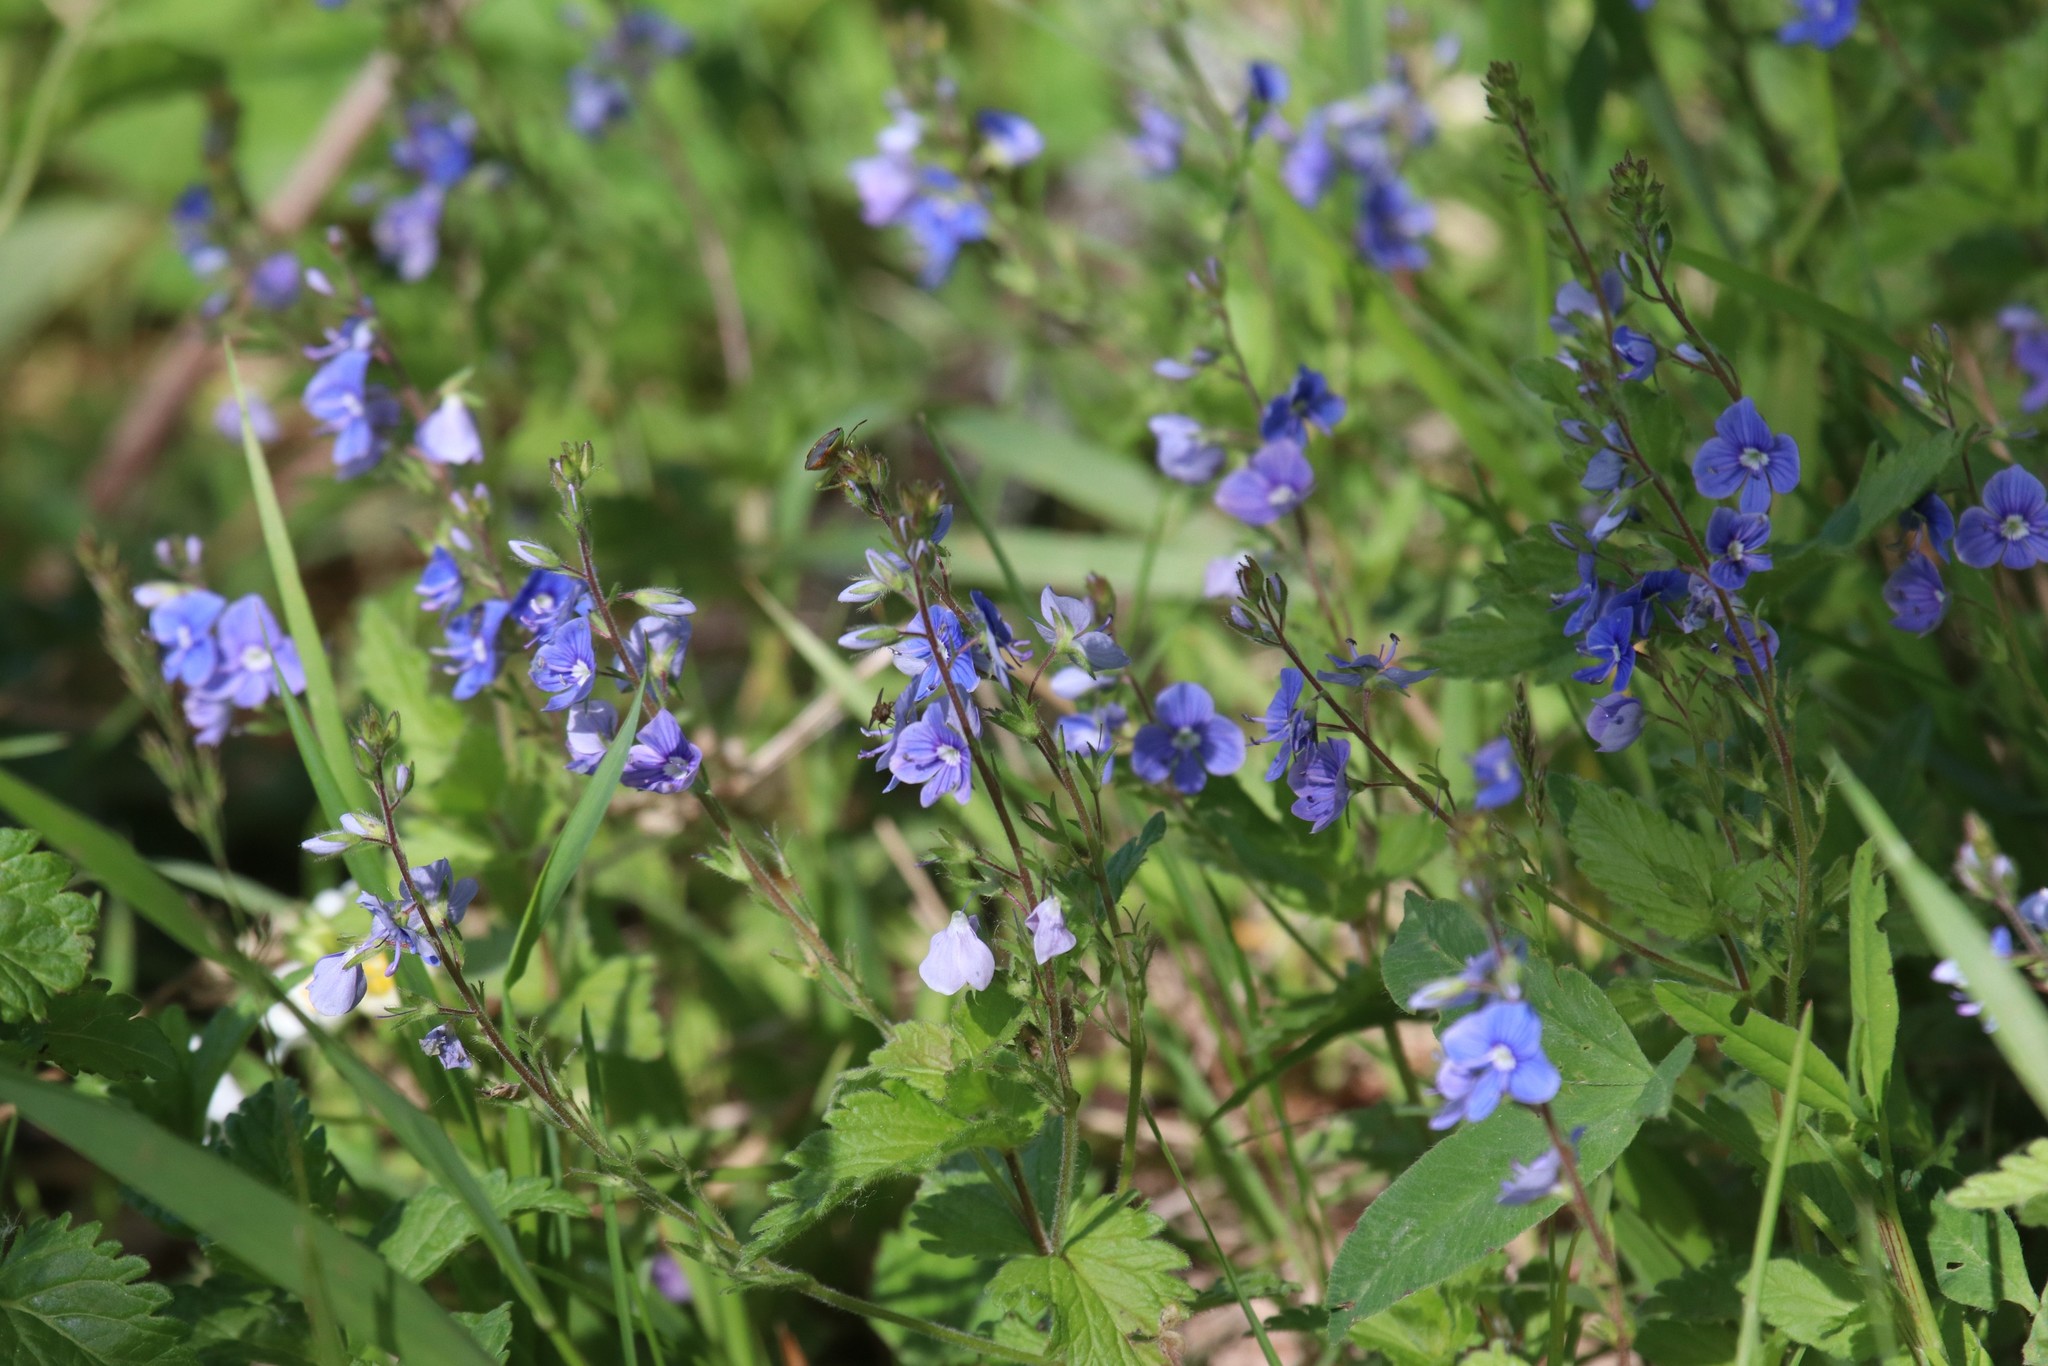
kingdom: Plantae
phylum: Tracheophyta
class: Magnoliopsida
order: Lamiales
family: Plantaginaceae
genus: Veronica
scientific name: Veronica chamaedrys
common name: Germander speedwell
